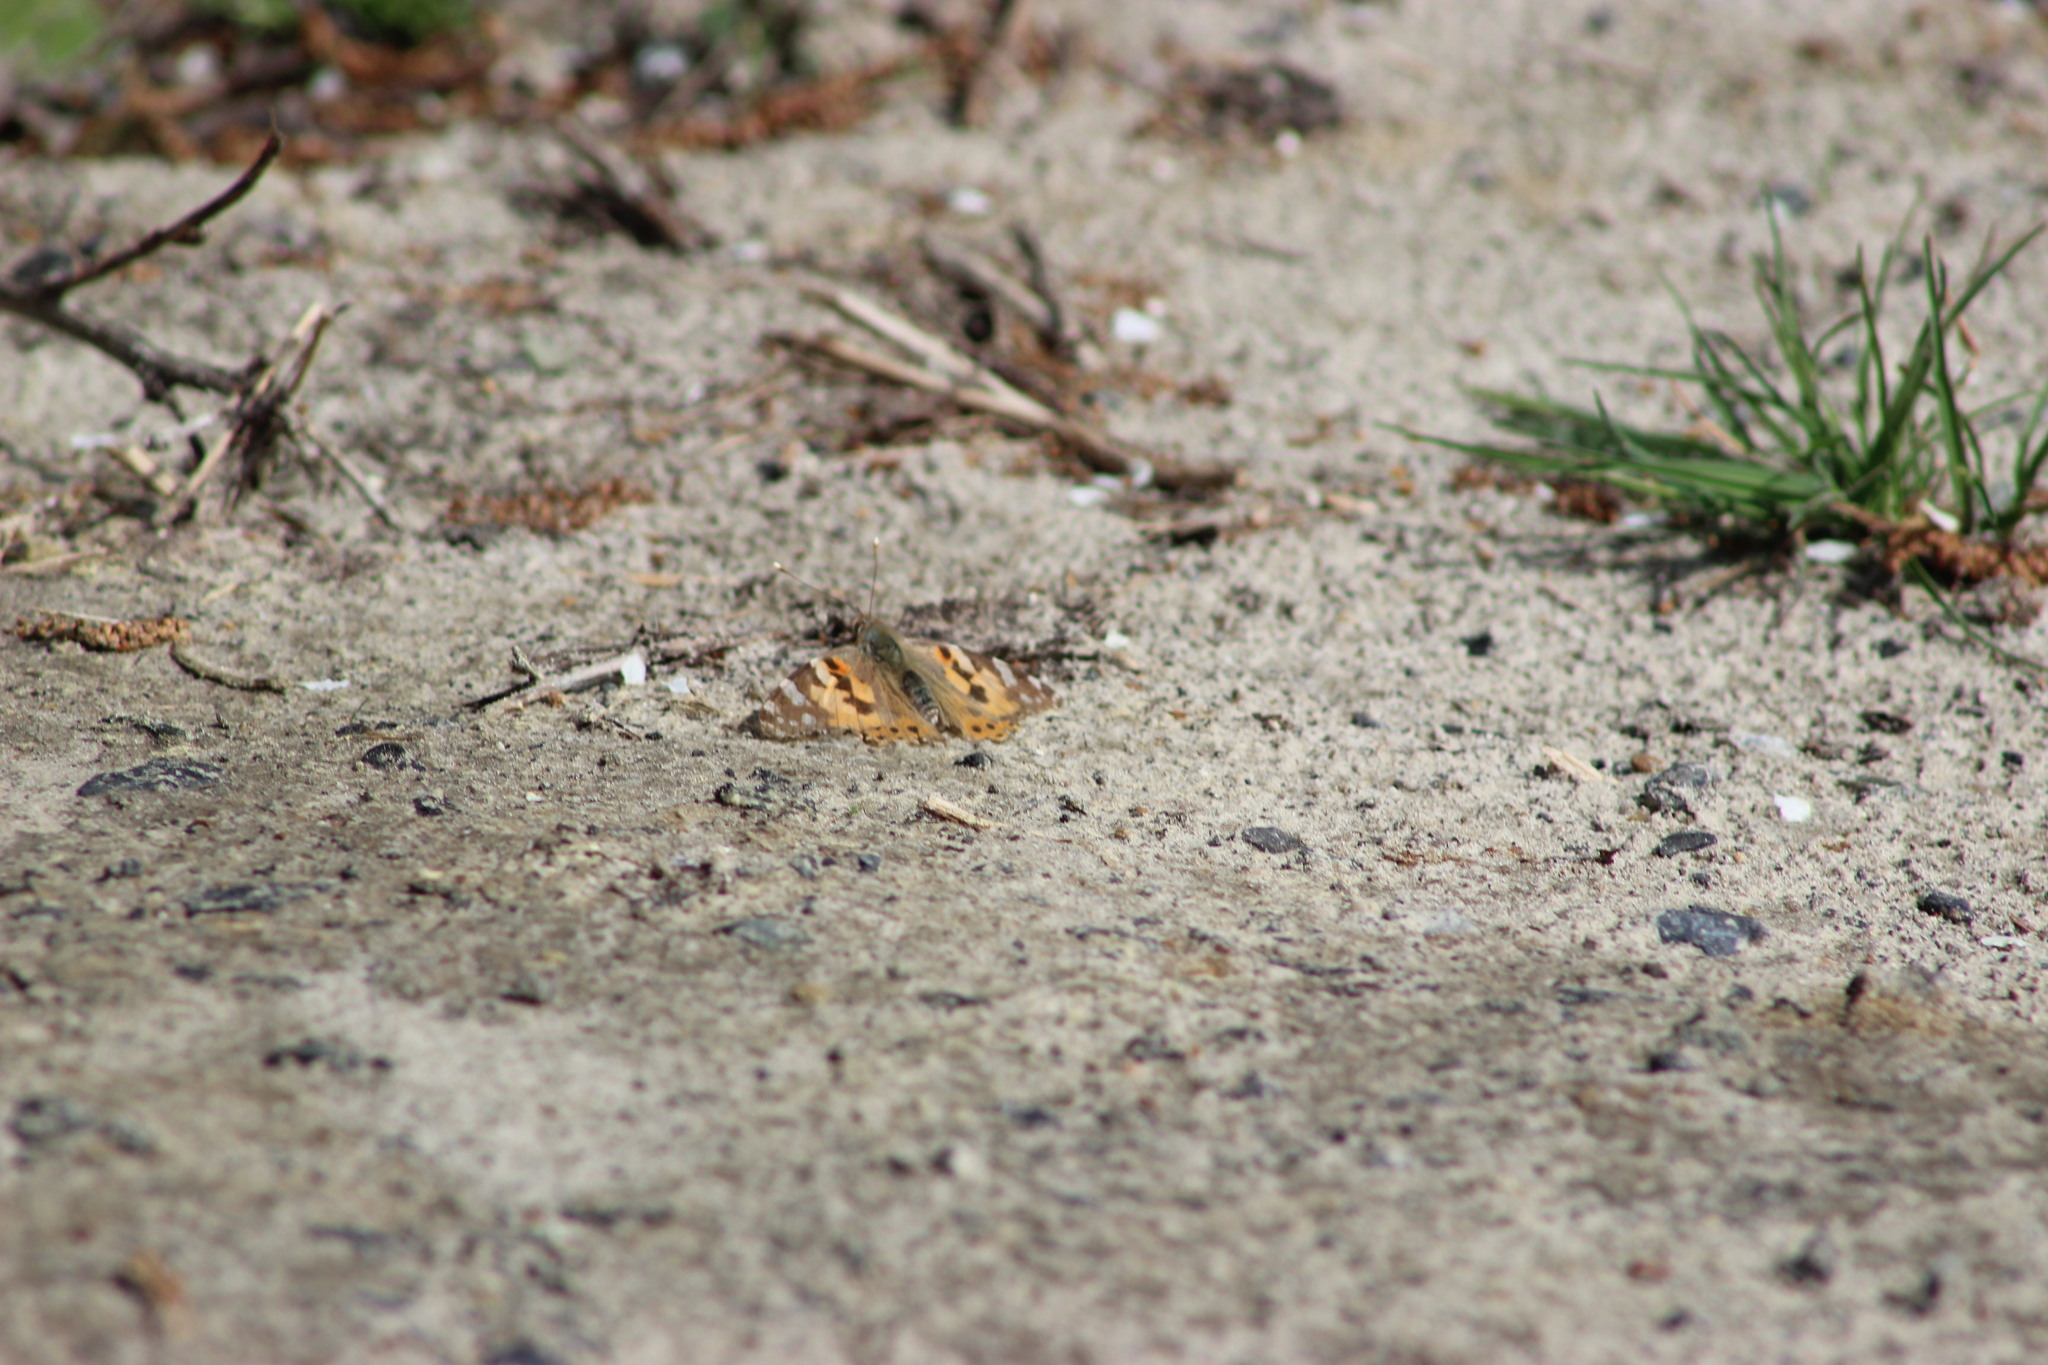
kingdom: Animalia
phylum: Arthropoda
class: Insecta
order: Lepidoptera
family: Nymphalidae
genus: Vanessa
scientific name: Vanessa cardui
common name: Painted lady
